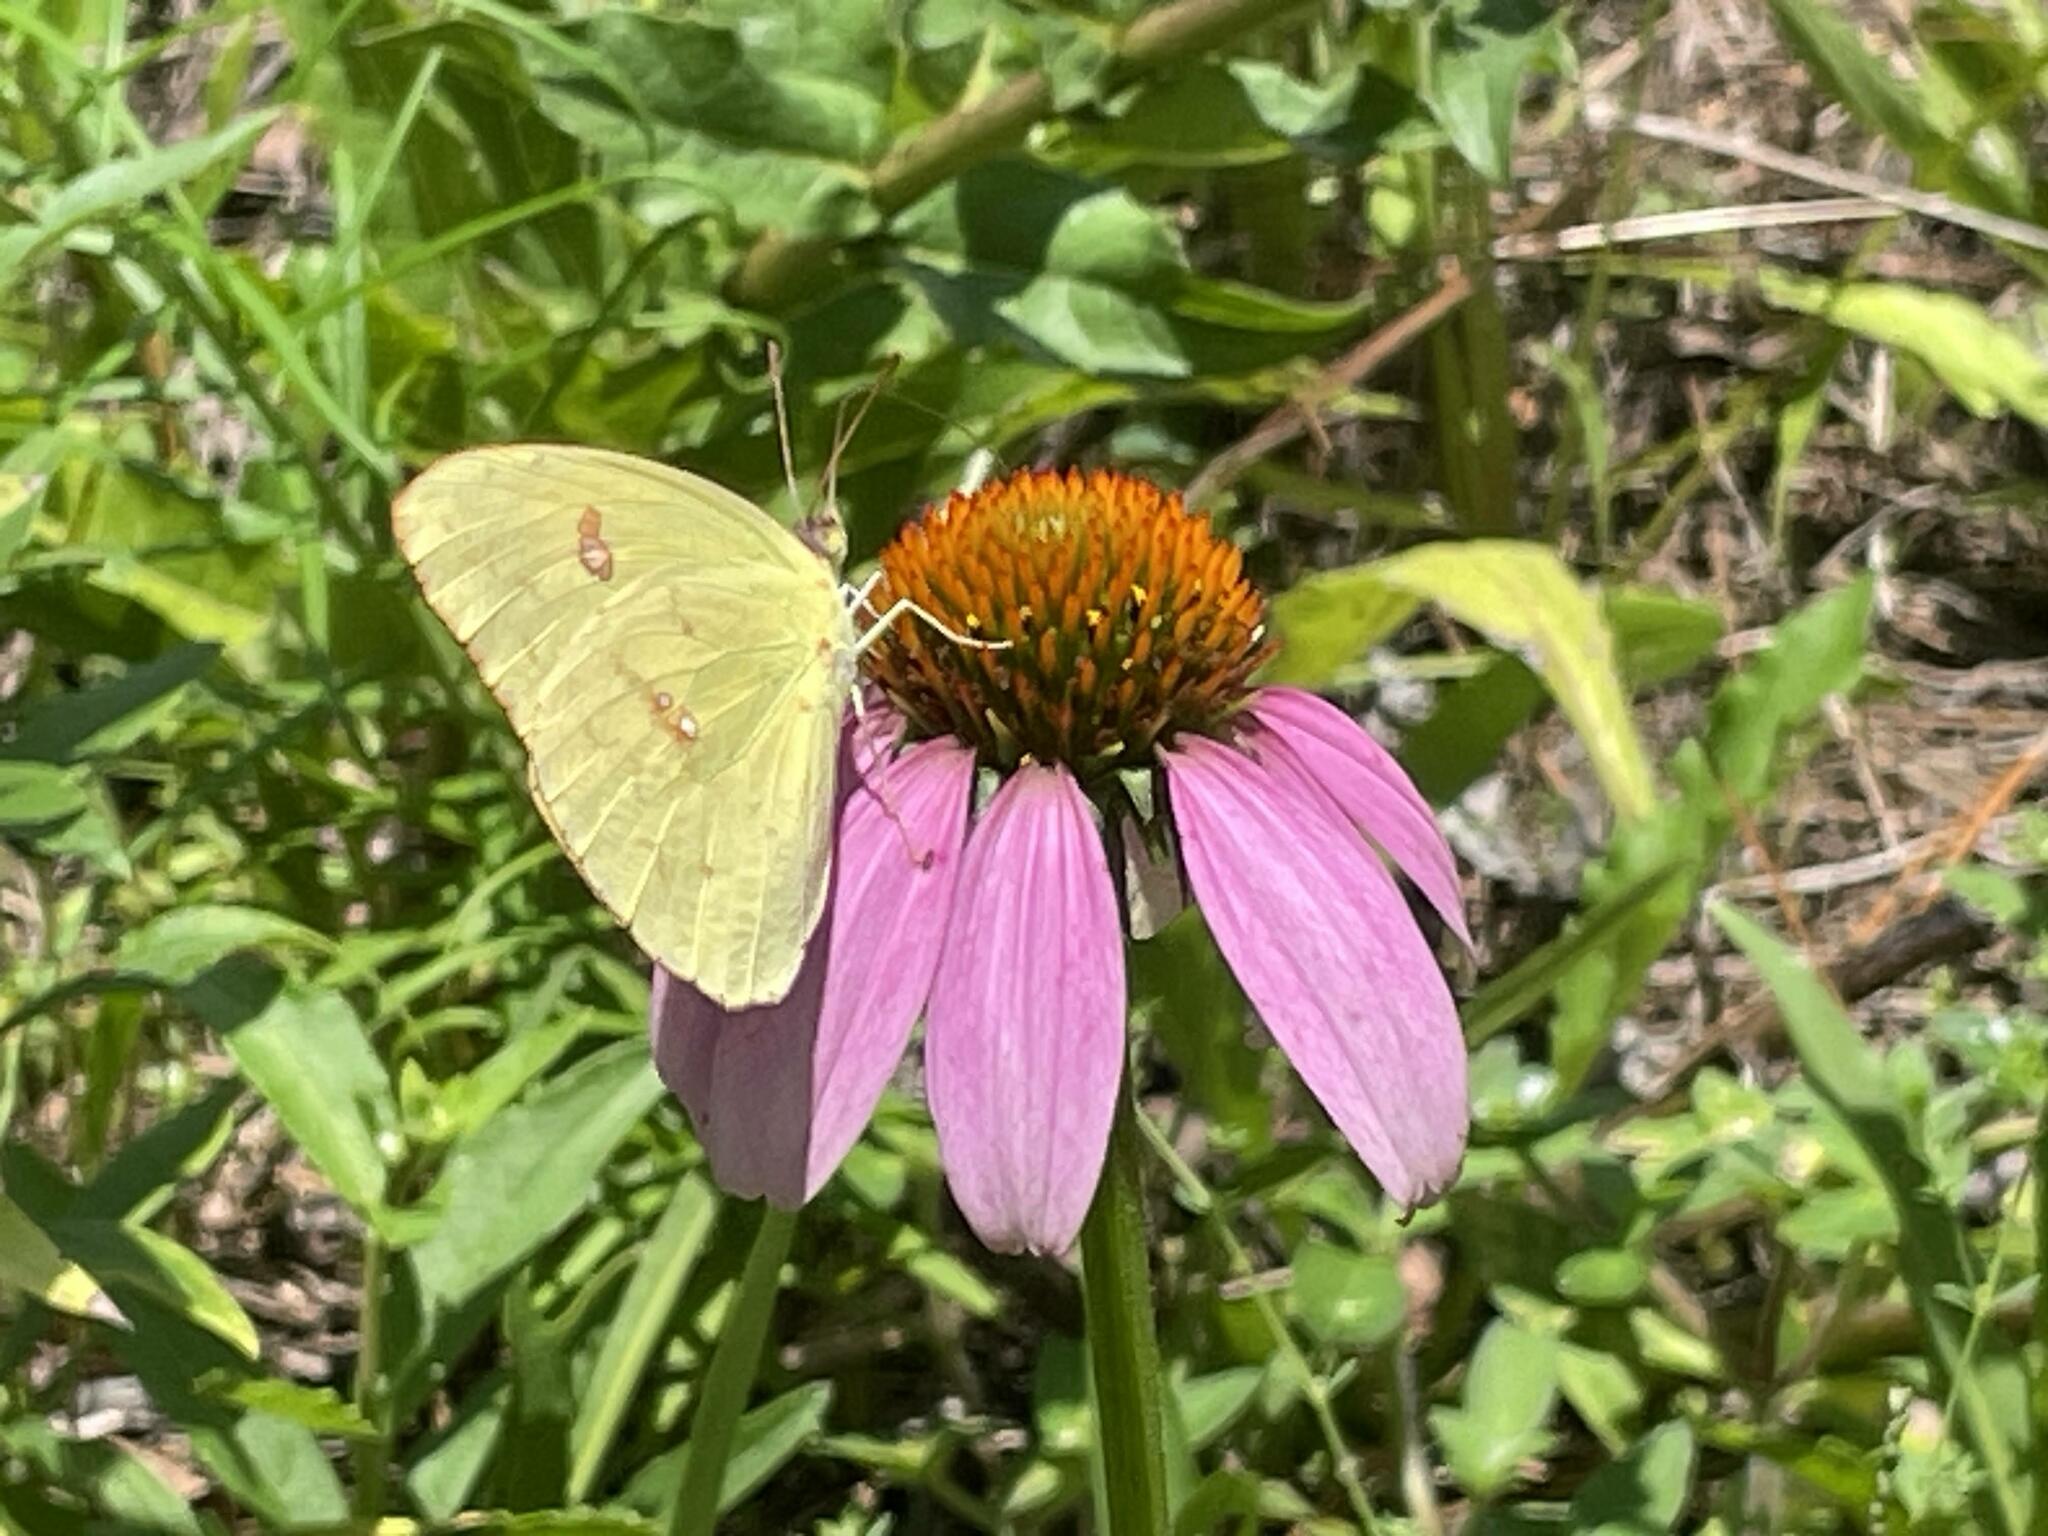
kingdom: Animalia
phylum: Arthropoda
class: Insecta
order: Lepidoptera
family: Pieridae
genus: Phoebis
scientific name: Phoebis sennae
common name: Cloudless sulphur
